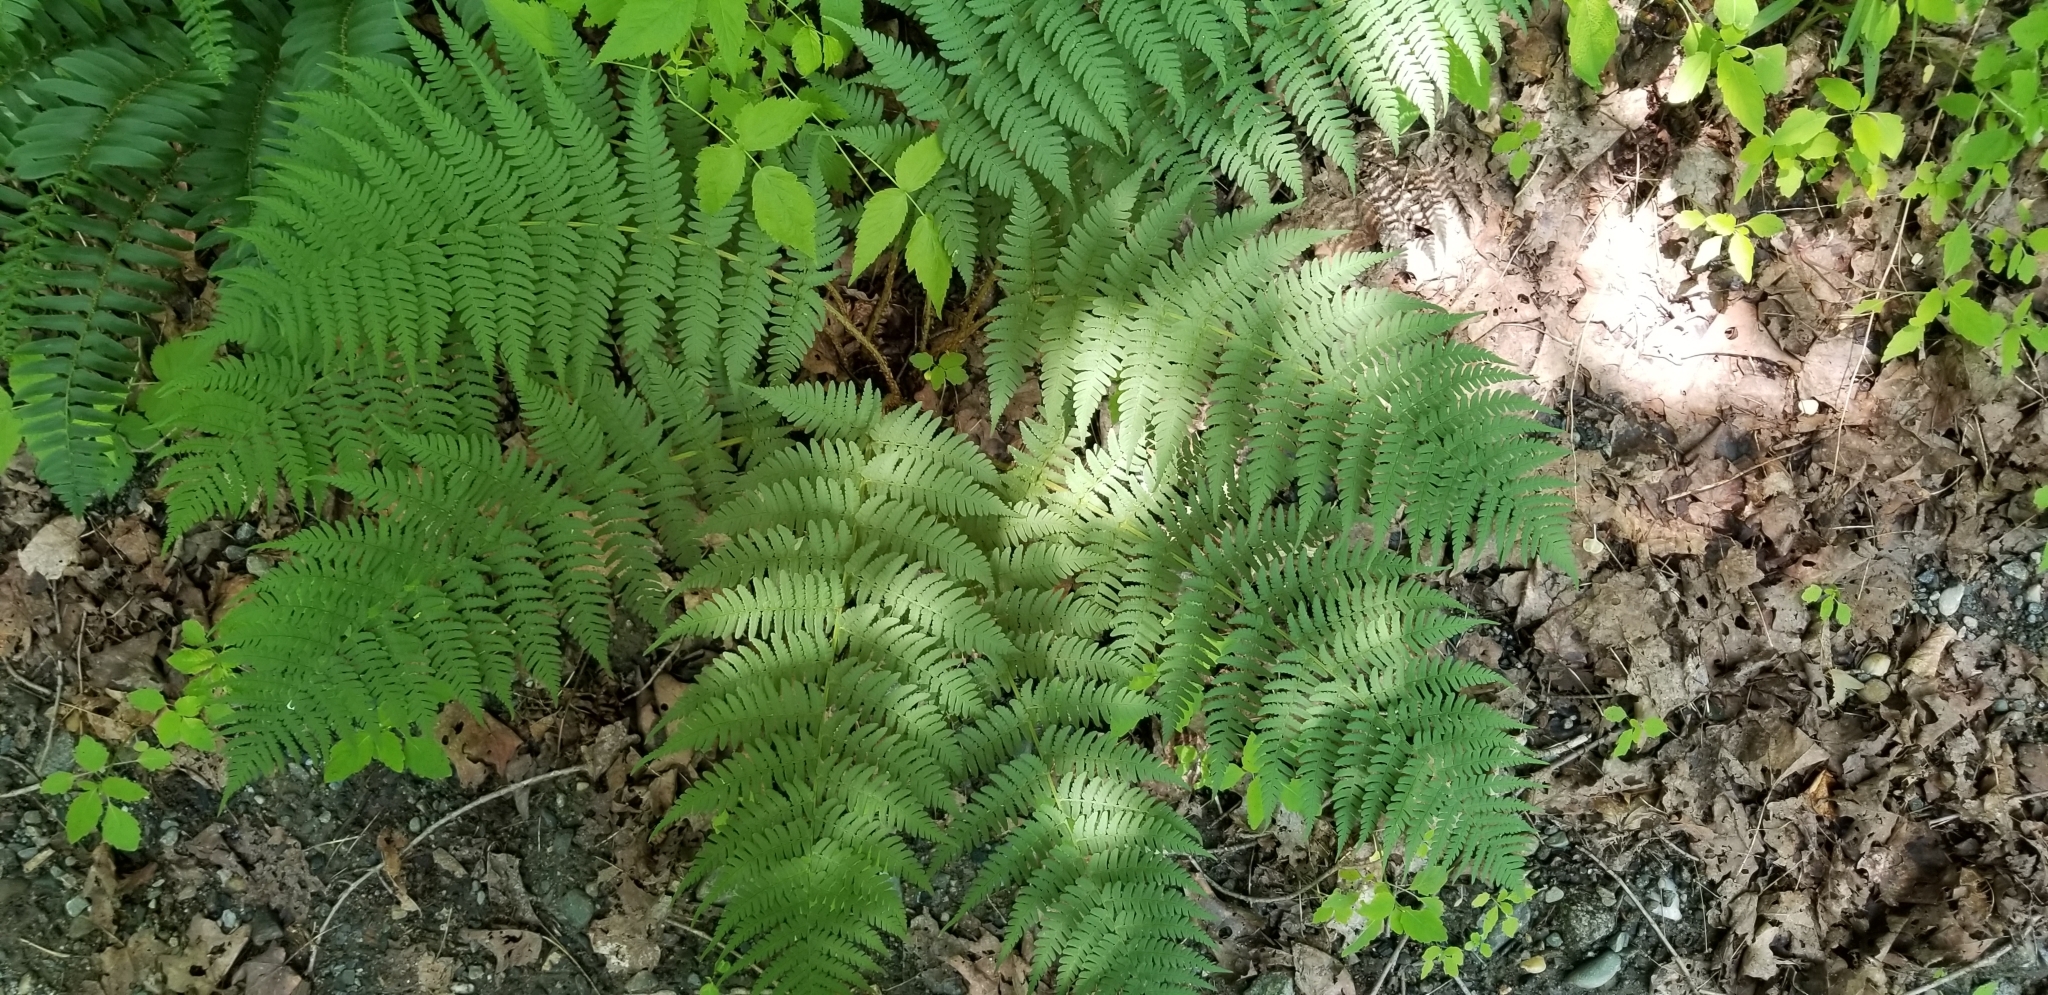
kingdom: Plantae
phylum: Tracheophyta
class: Polypodiopsida
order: Polypodiales
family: Dryopteridaceae
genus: Dryopteris
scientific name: Dryopteris marginalis
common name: Marginal wood fern
